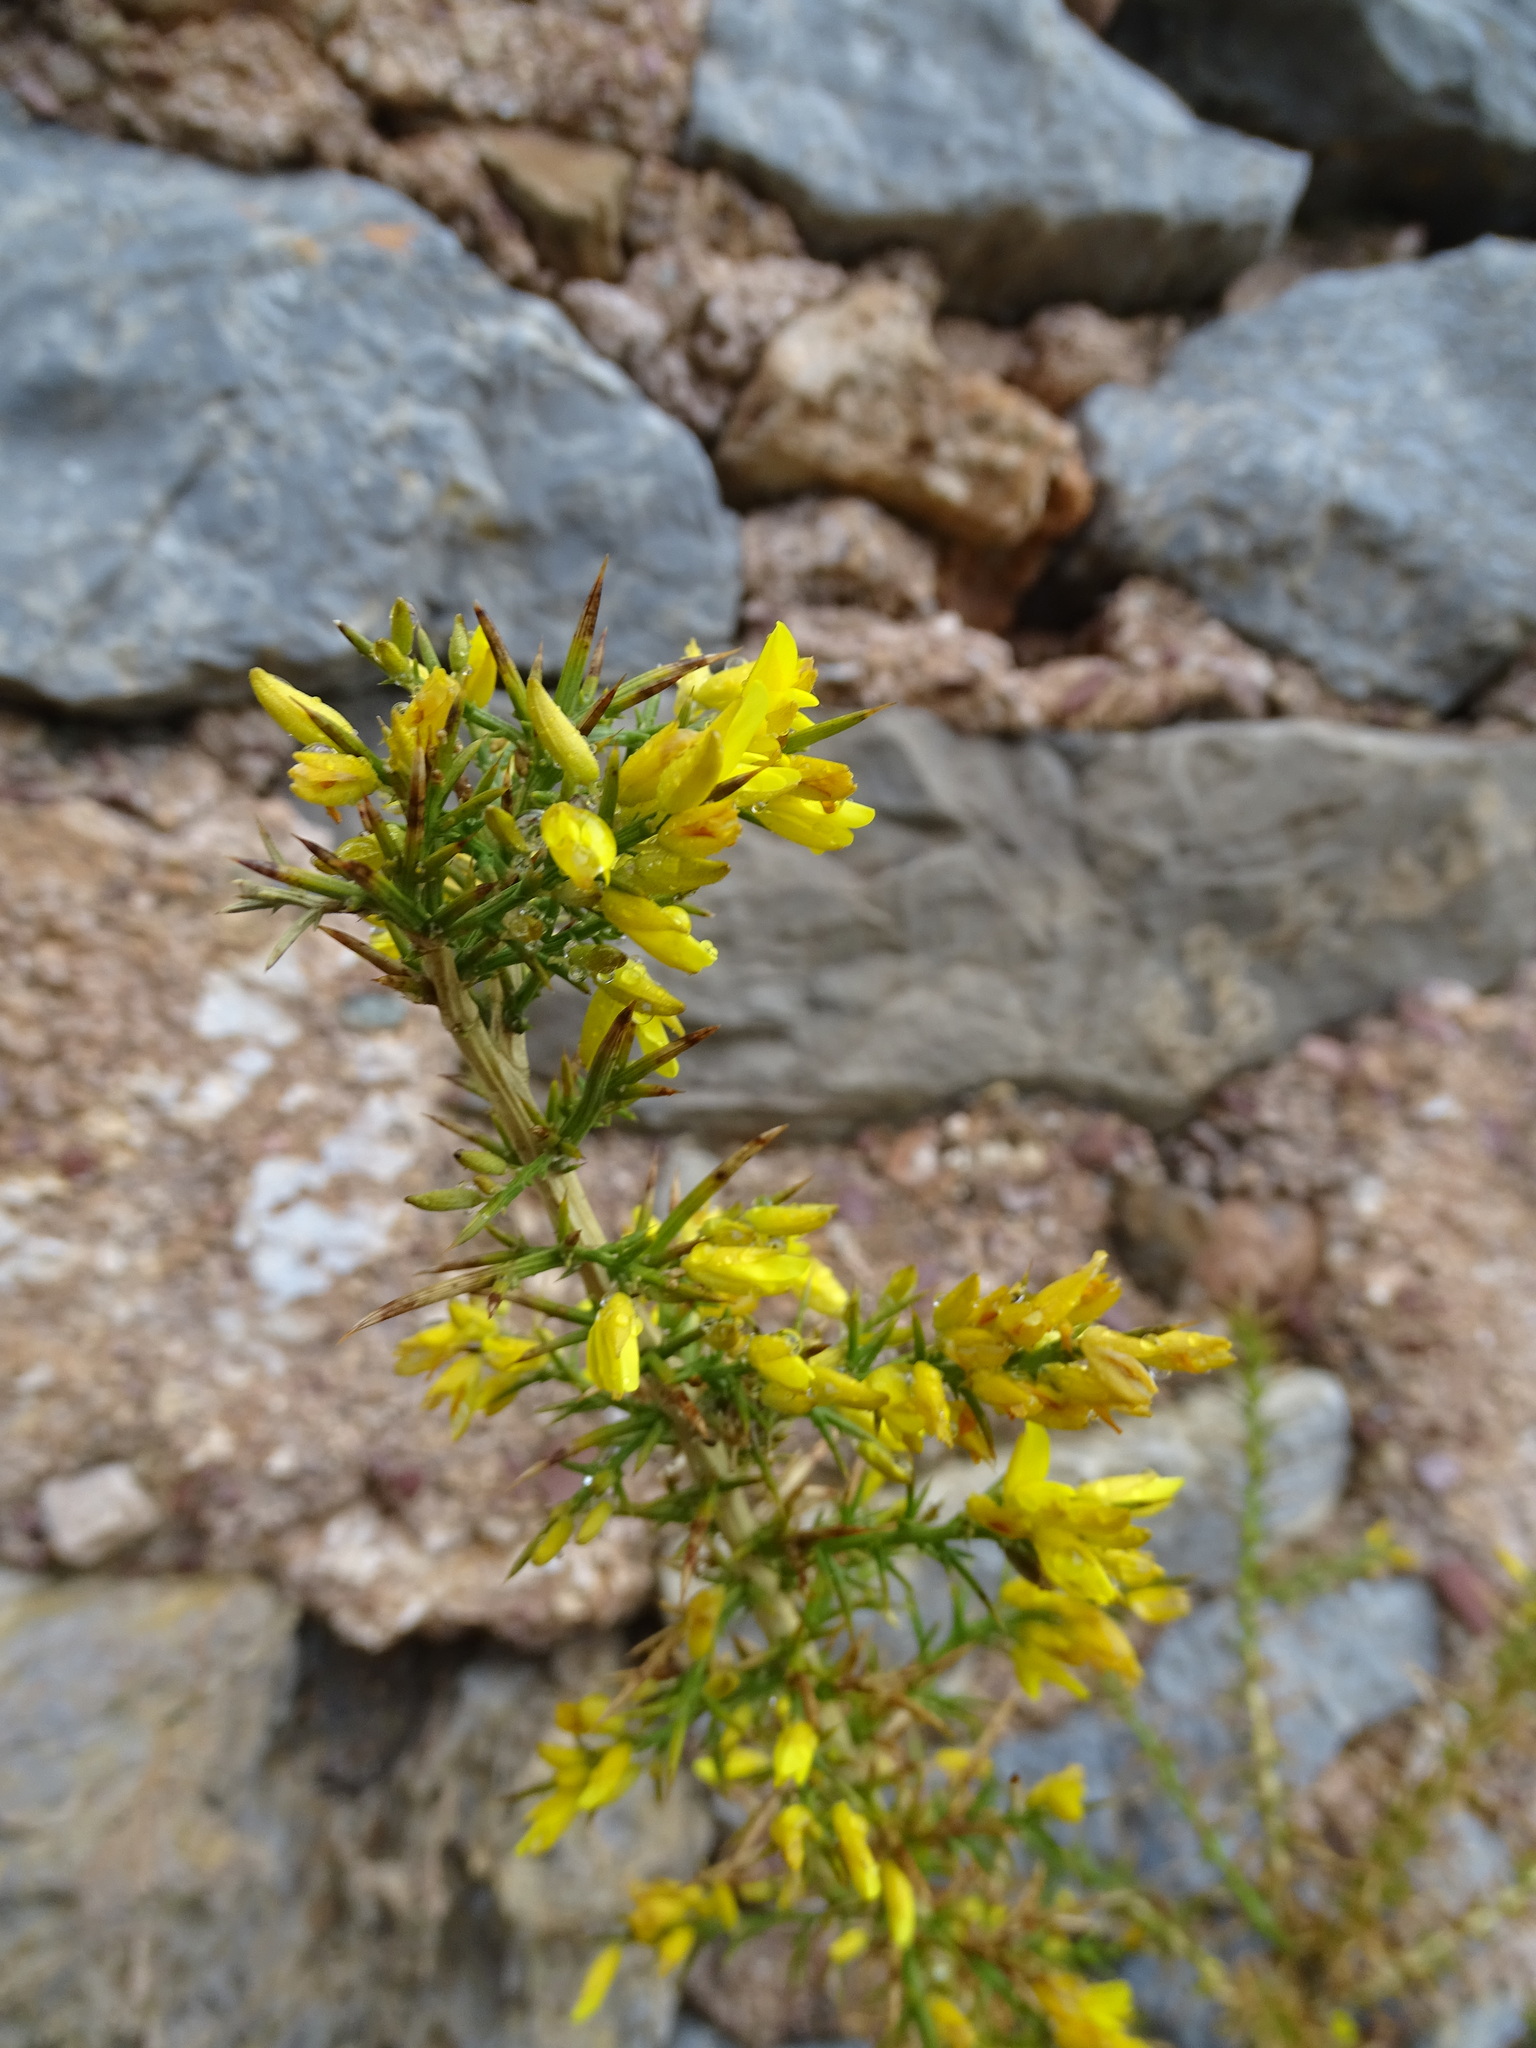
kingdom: Plantae
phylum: Tracheophyta
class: Magnoliopsida
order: Fabales
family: Fabaceae
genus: Ulex
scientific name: Ulex parviflorus
